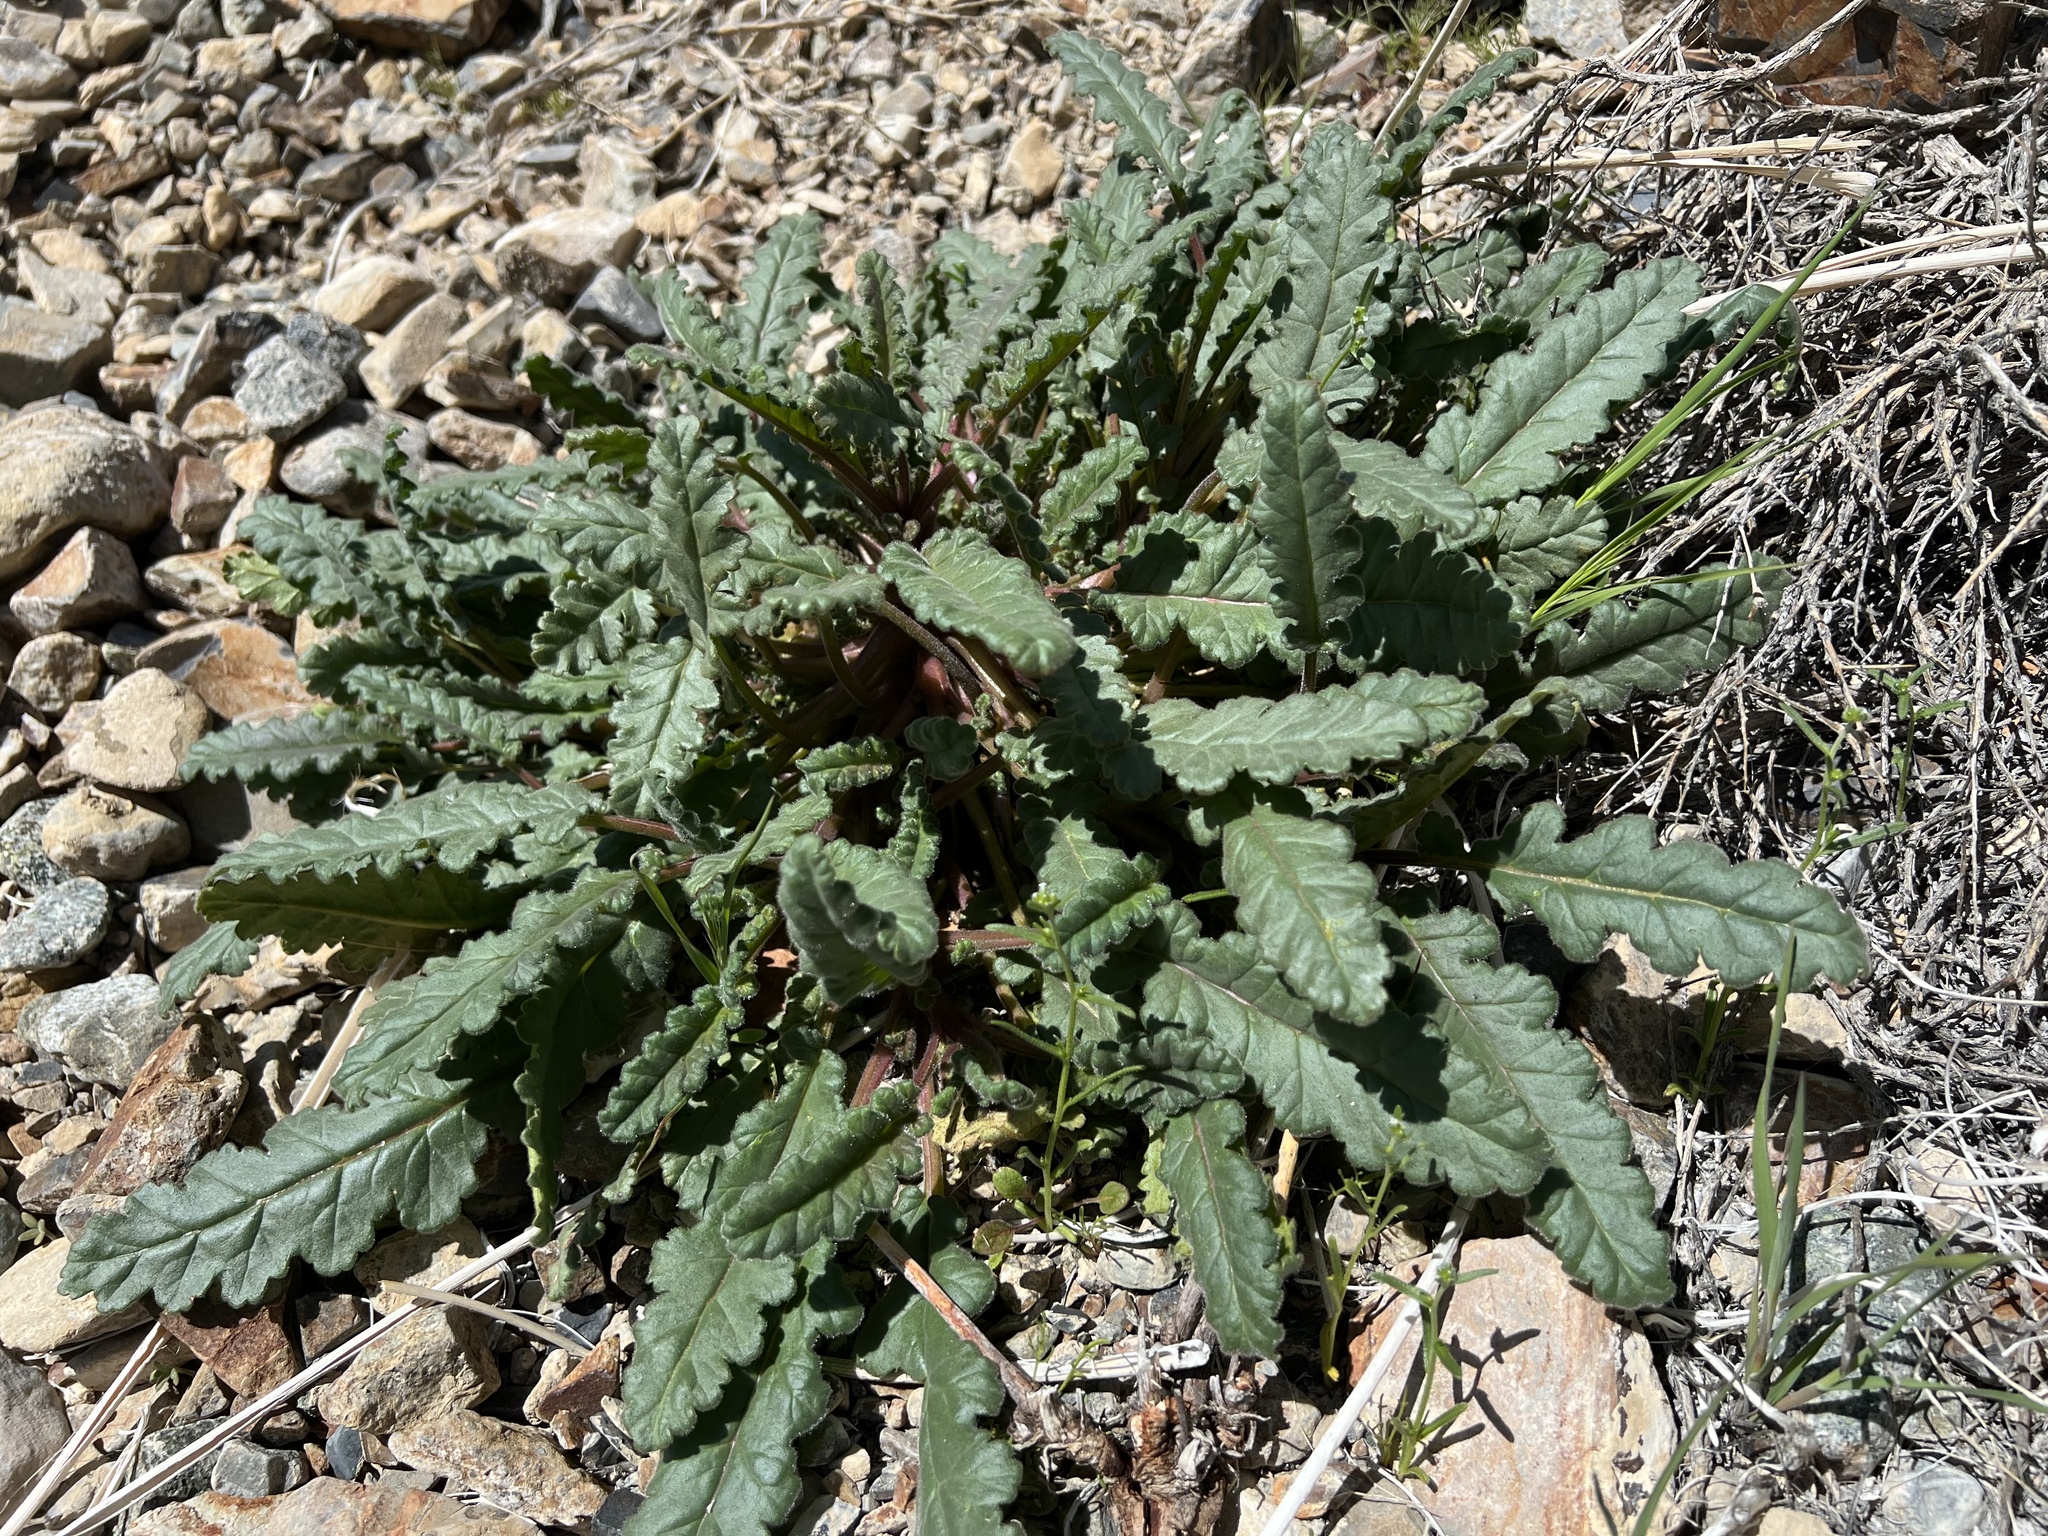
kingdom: Plantae
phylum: Tracheophyta
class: Magnoliopsida
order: Boraginales
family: Hydrophyllaceae
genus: Phacelia
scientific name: Phacelia crenulata
